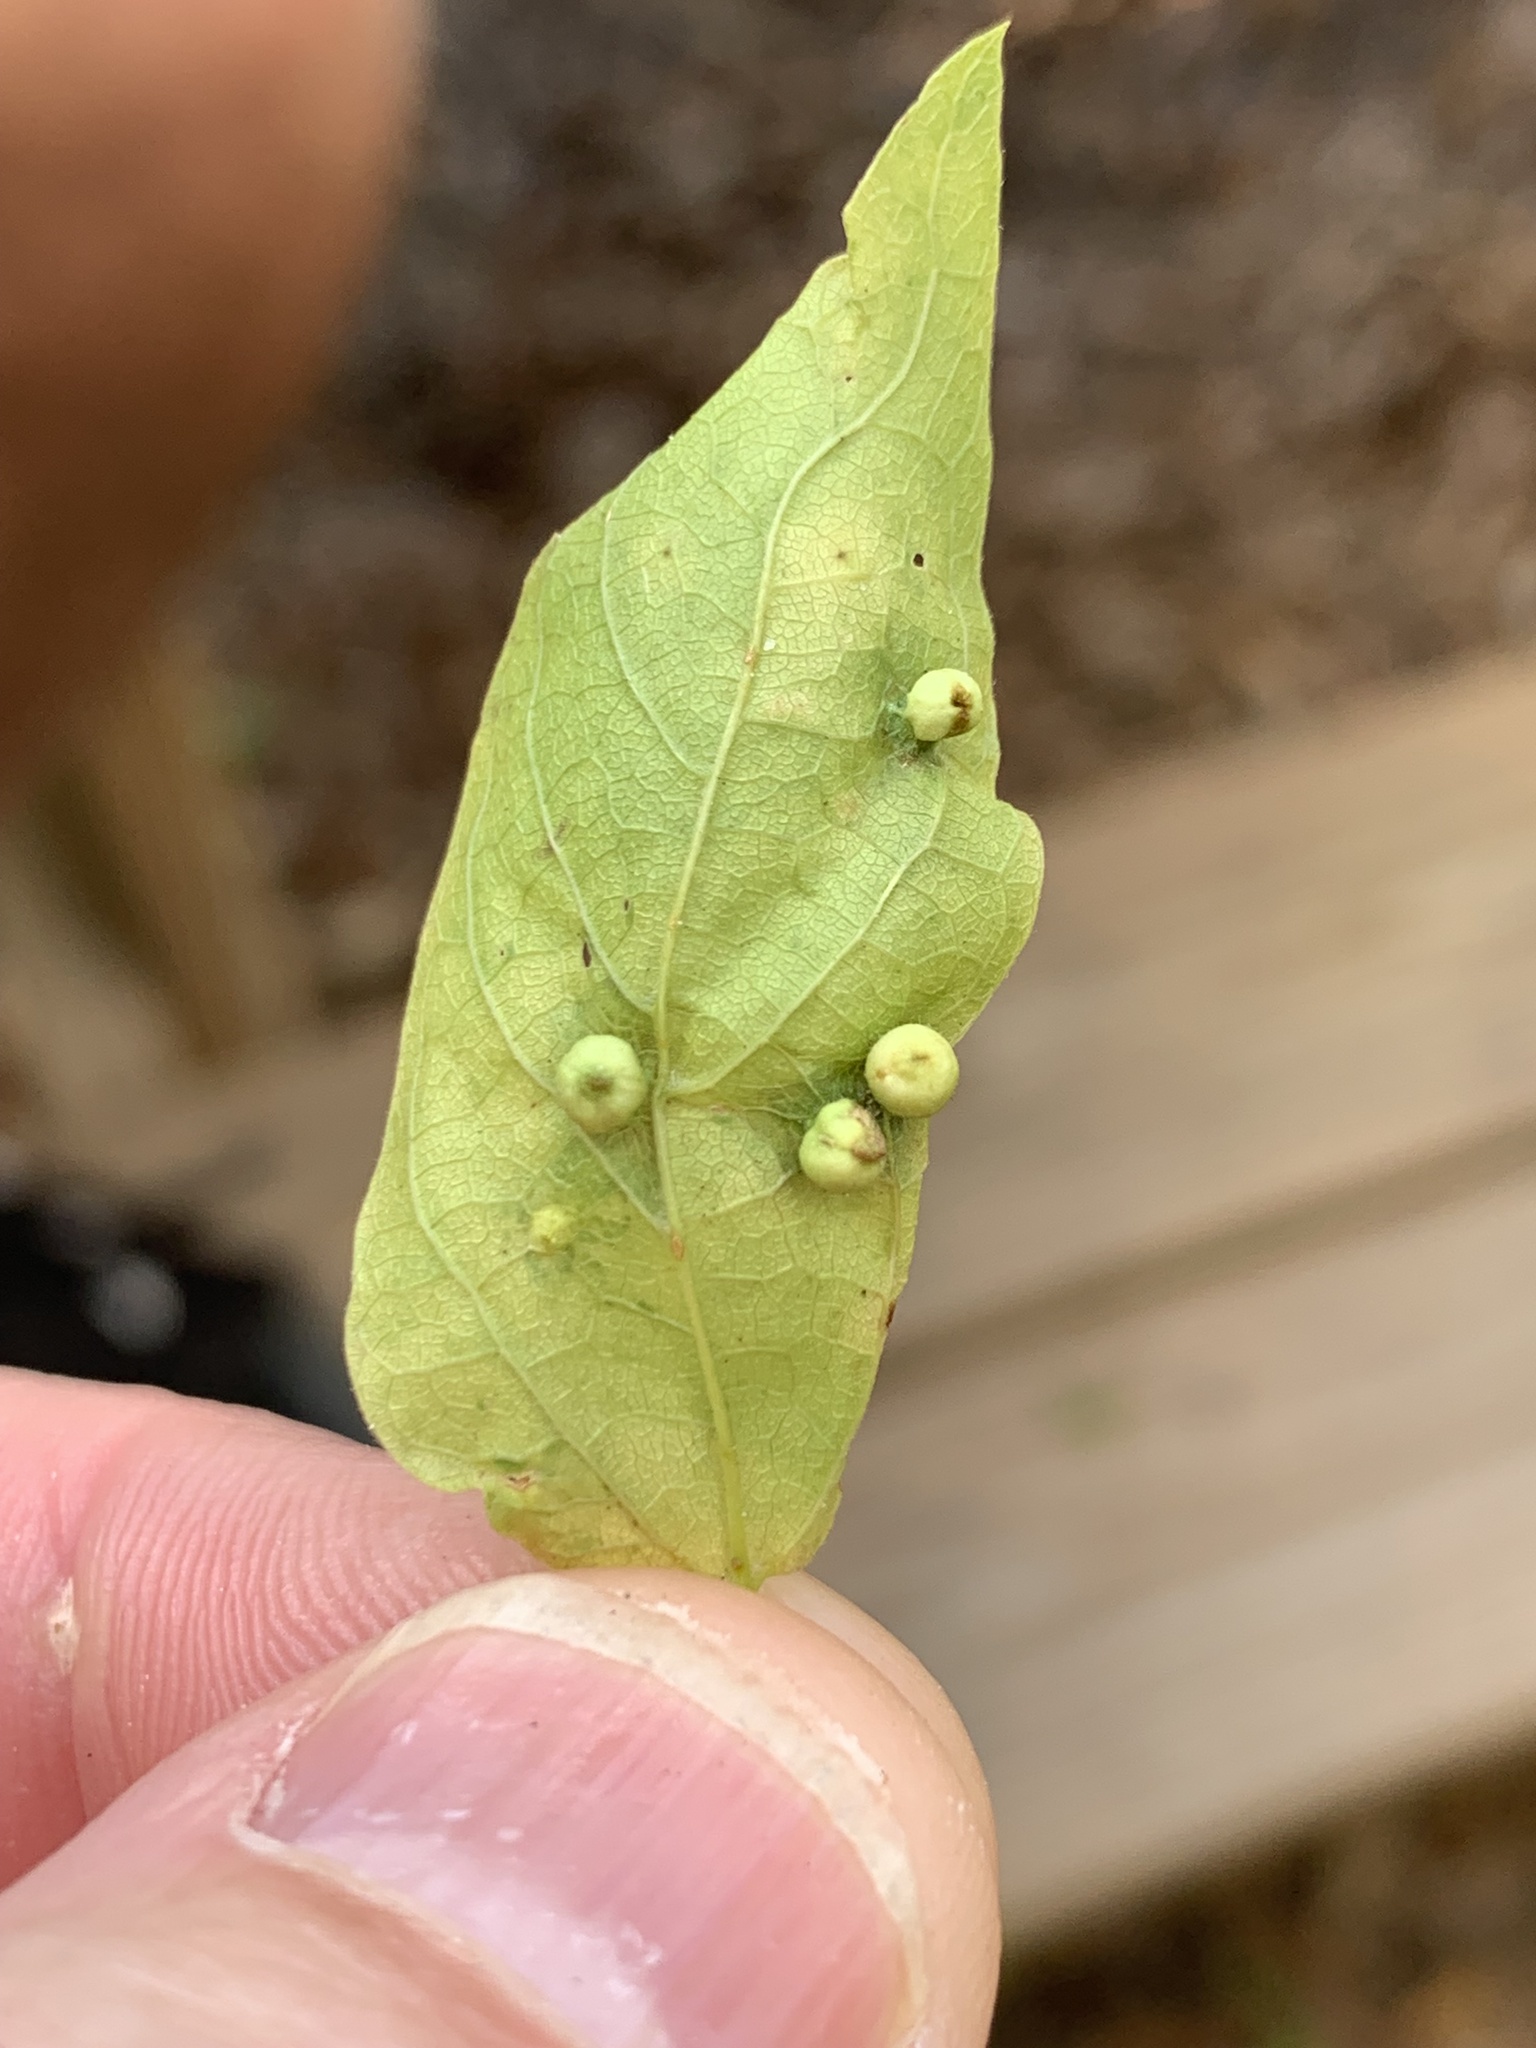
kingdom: Animalia
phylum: Arthropoda
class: Insecta
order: Hemiptera
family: Aphalaridae
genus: Pachypsylla
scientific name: Pachypsylla celtidismamma
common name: Hackberry nipplegall psyllid
